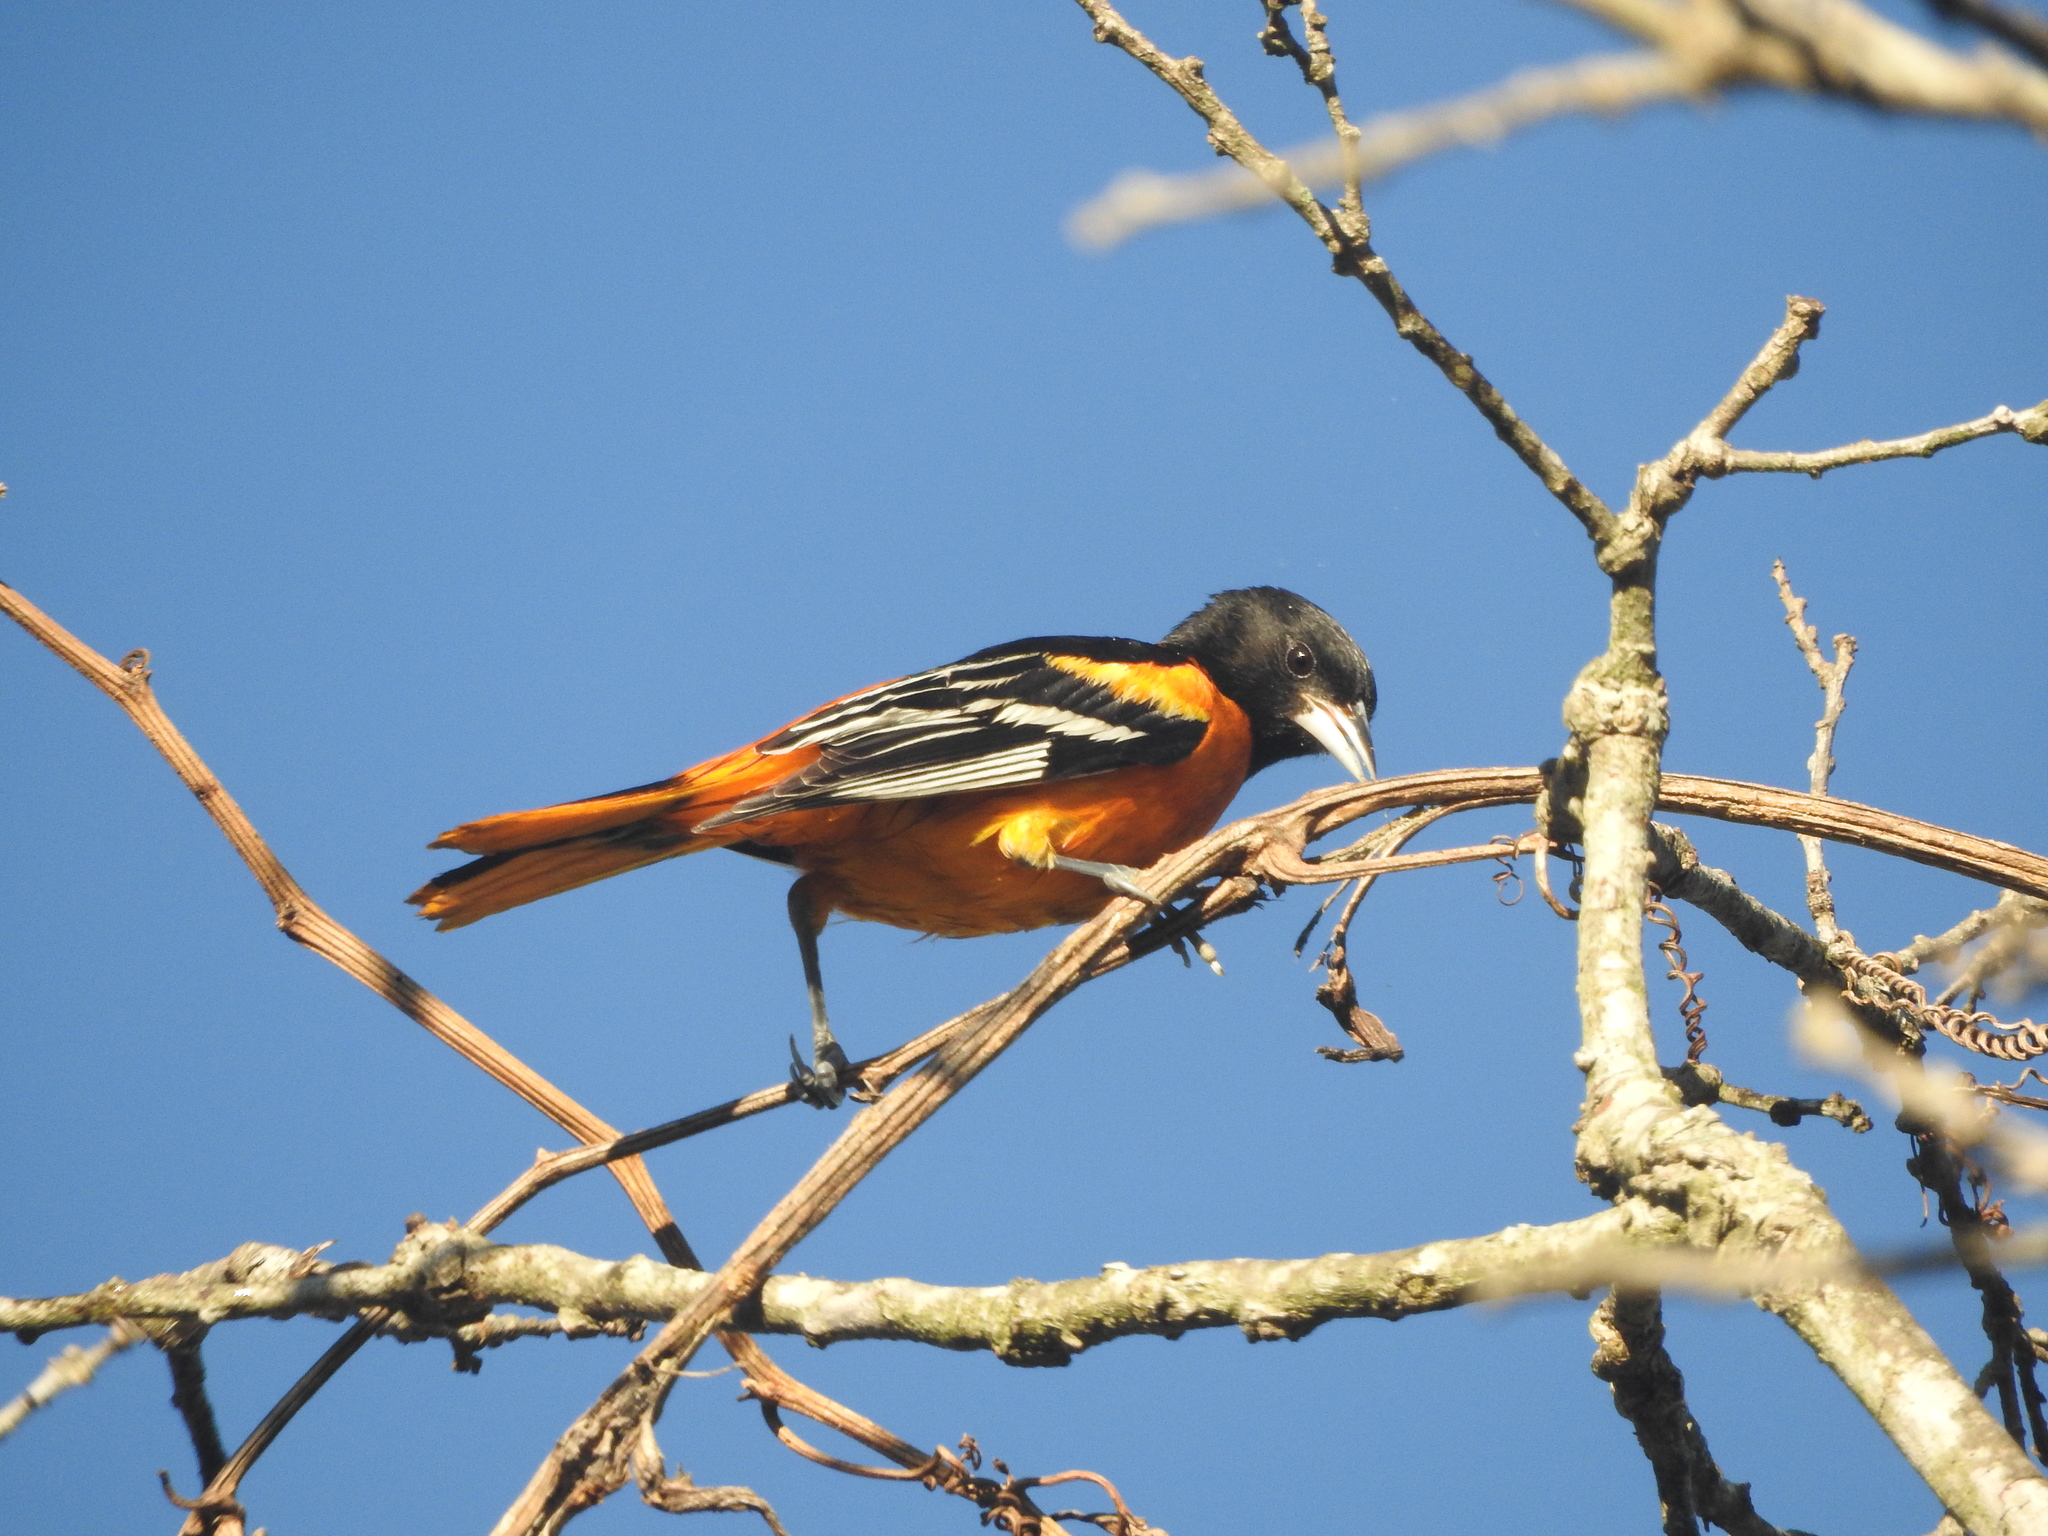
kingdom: Animalia
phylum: Chordata
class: Aves
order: Passeriformes
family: Icteridae
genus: Icterus
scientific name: Icterus galbula
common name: Baltimore oriole
